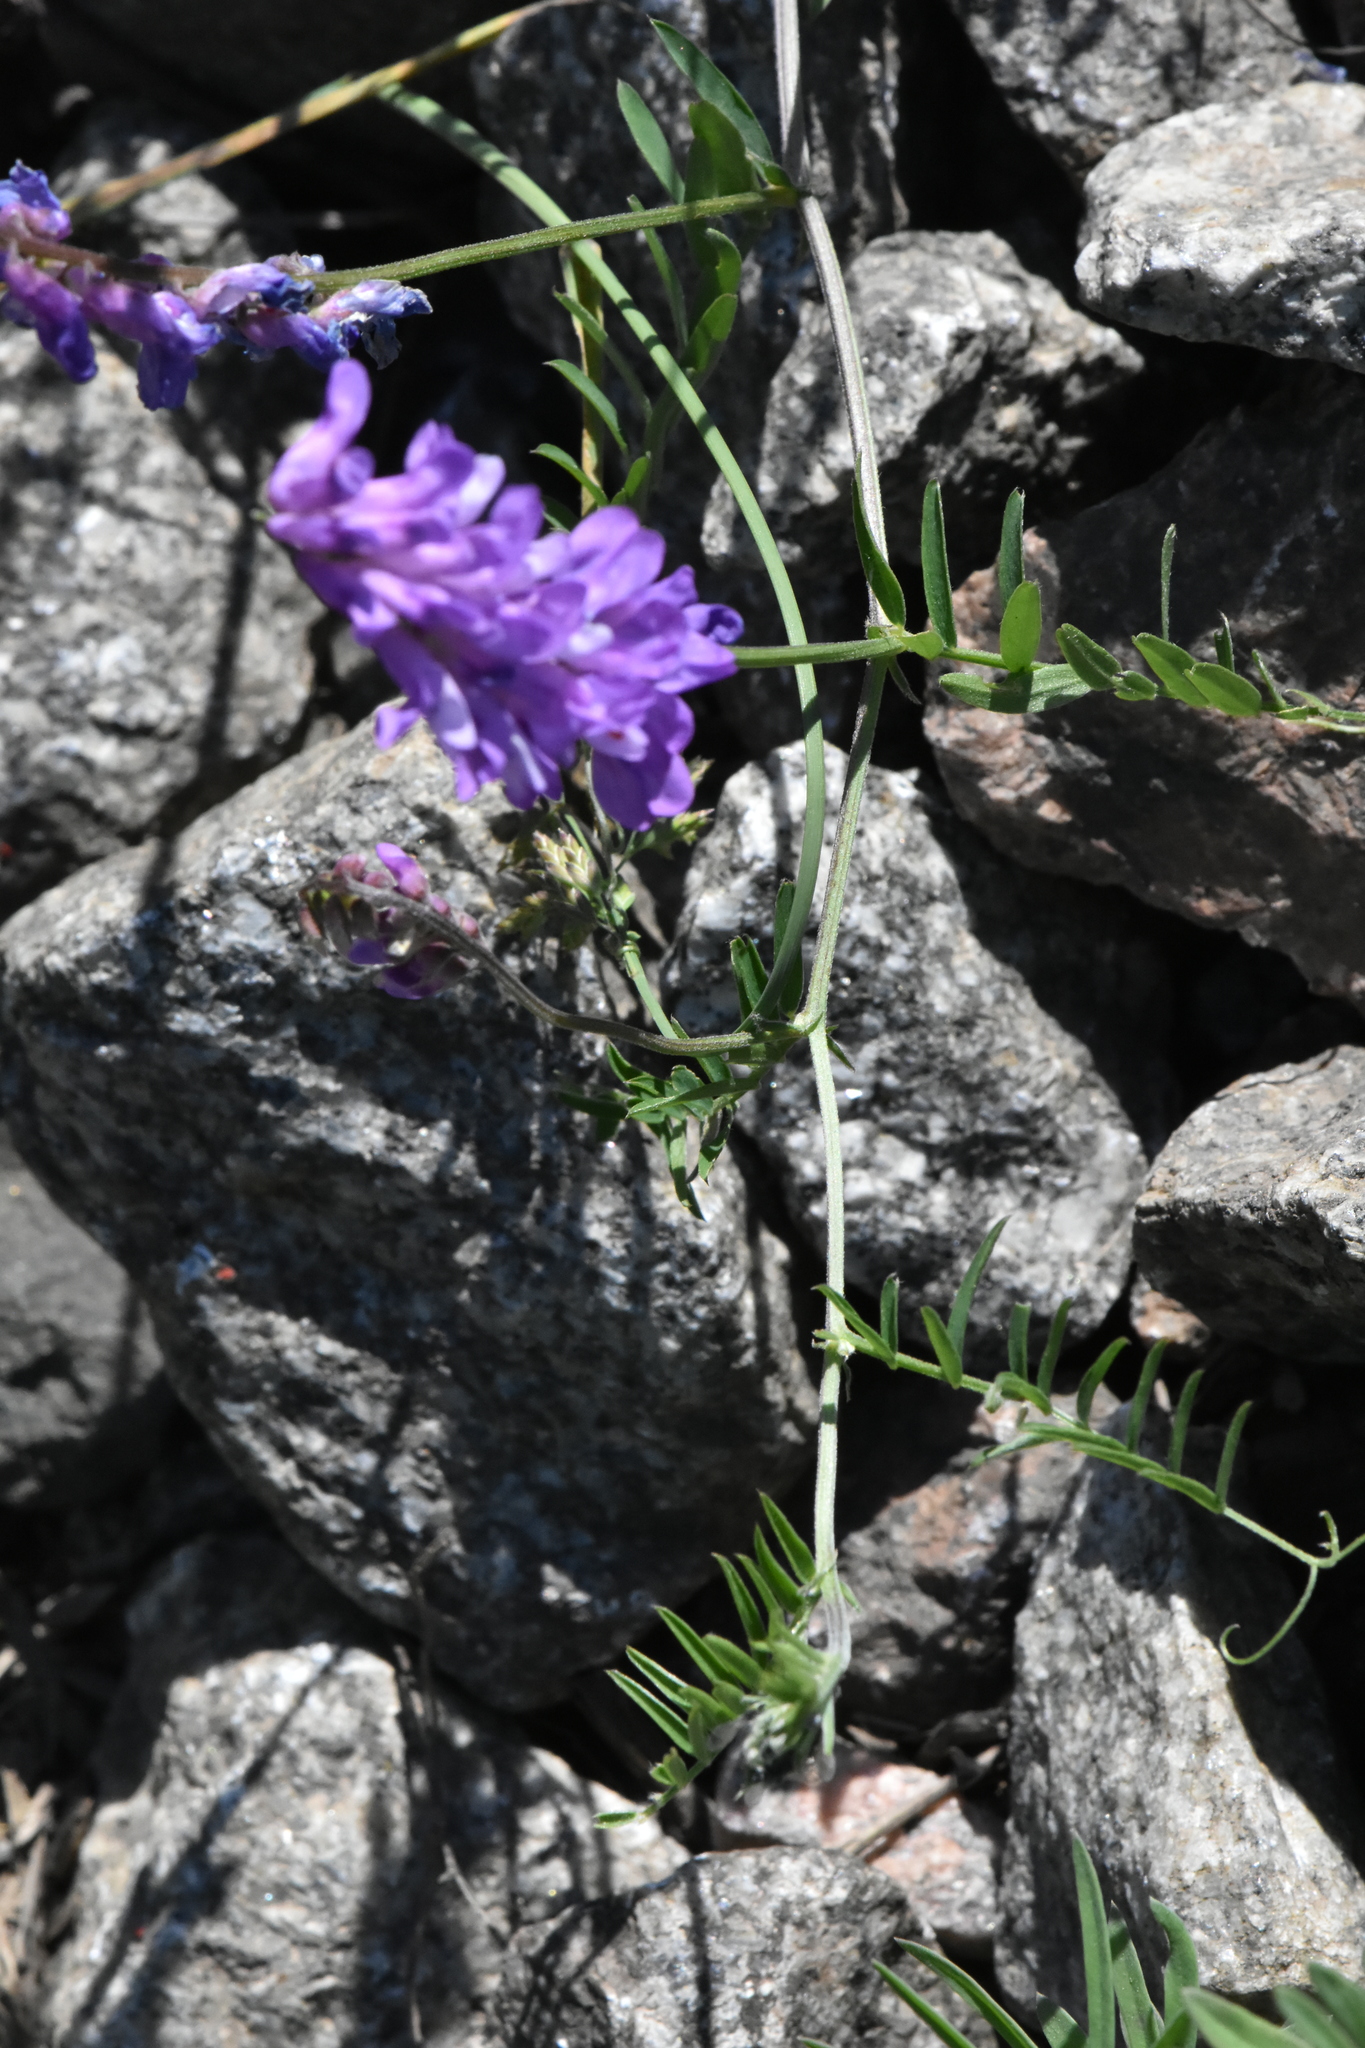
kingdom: Plantae
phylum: Tracheophyta
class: Magnoliopsida
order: Fabales
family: Fabaceae
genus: Vicia
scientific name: Vicia cracca
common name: Bird vetch
